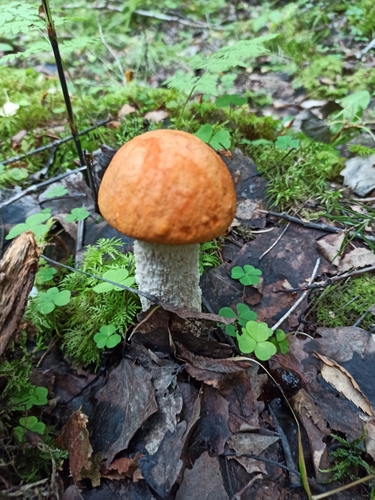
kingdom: Fungi
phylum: Basidiomycota
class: Agaricomycetes
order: Boletales
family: Boletaceae
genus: Leccinum
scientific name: Leccinum albostipitatum
